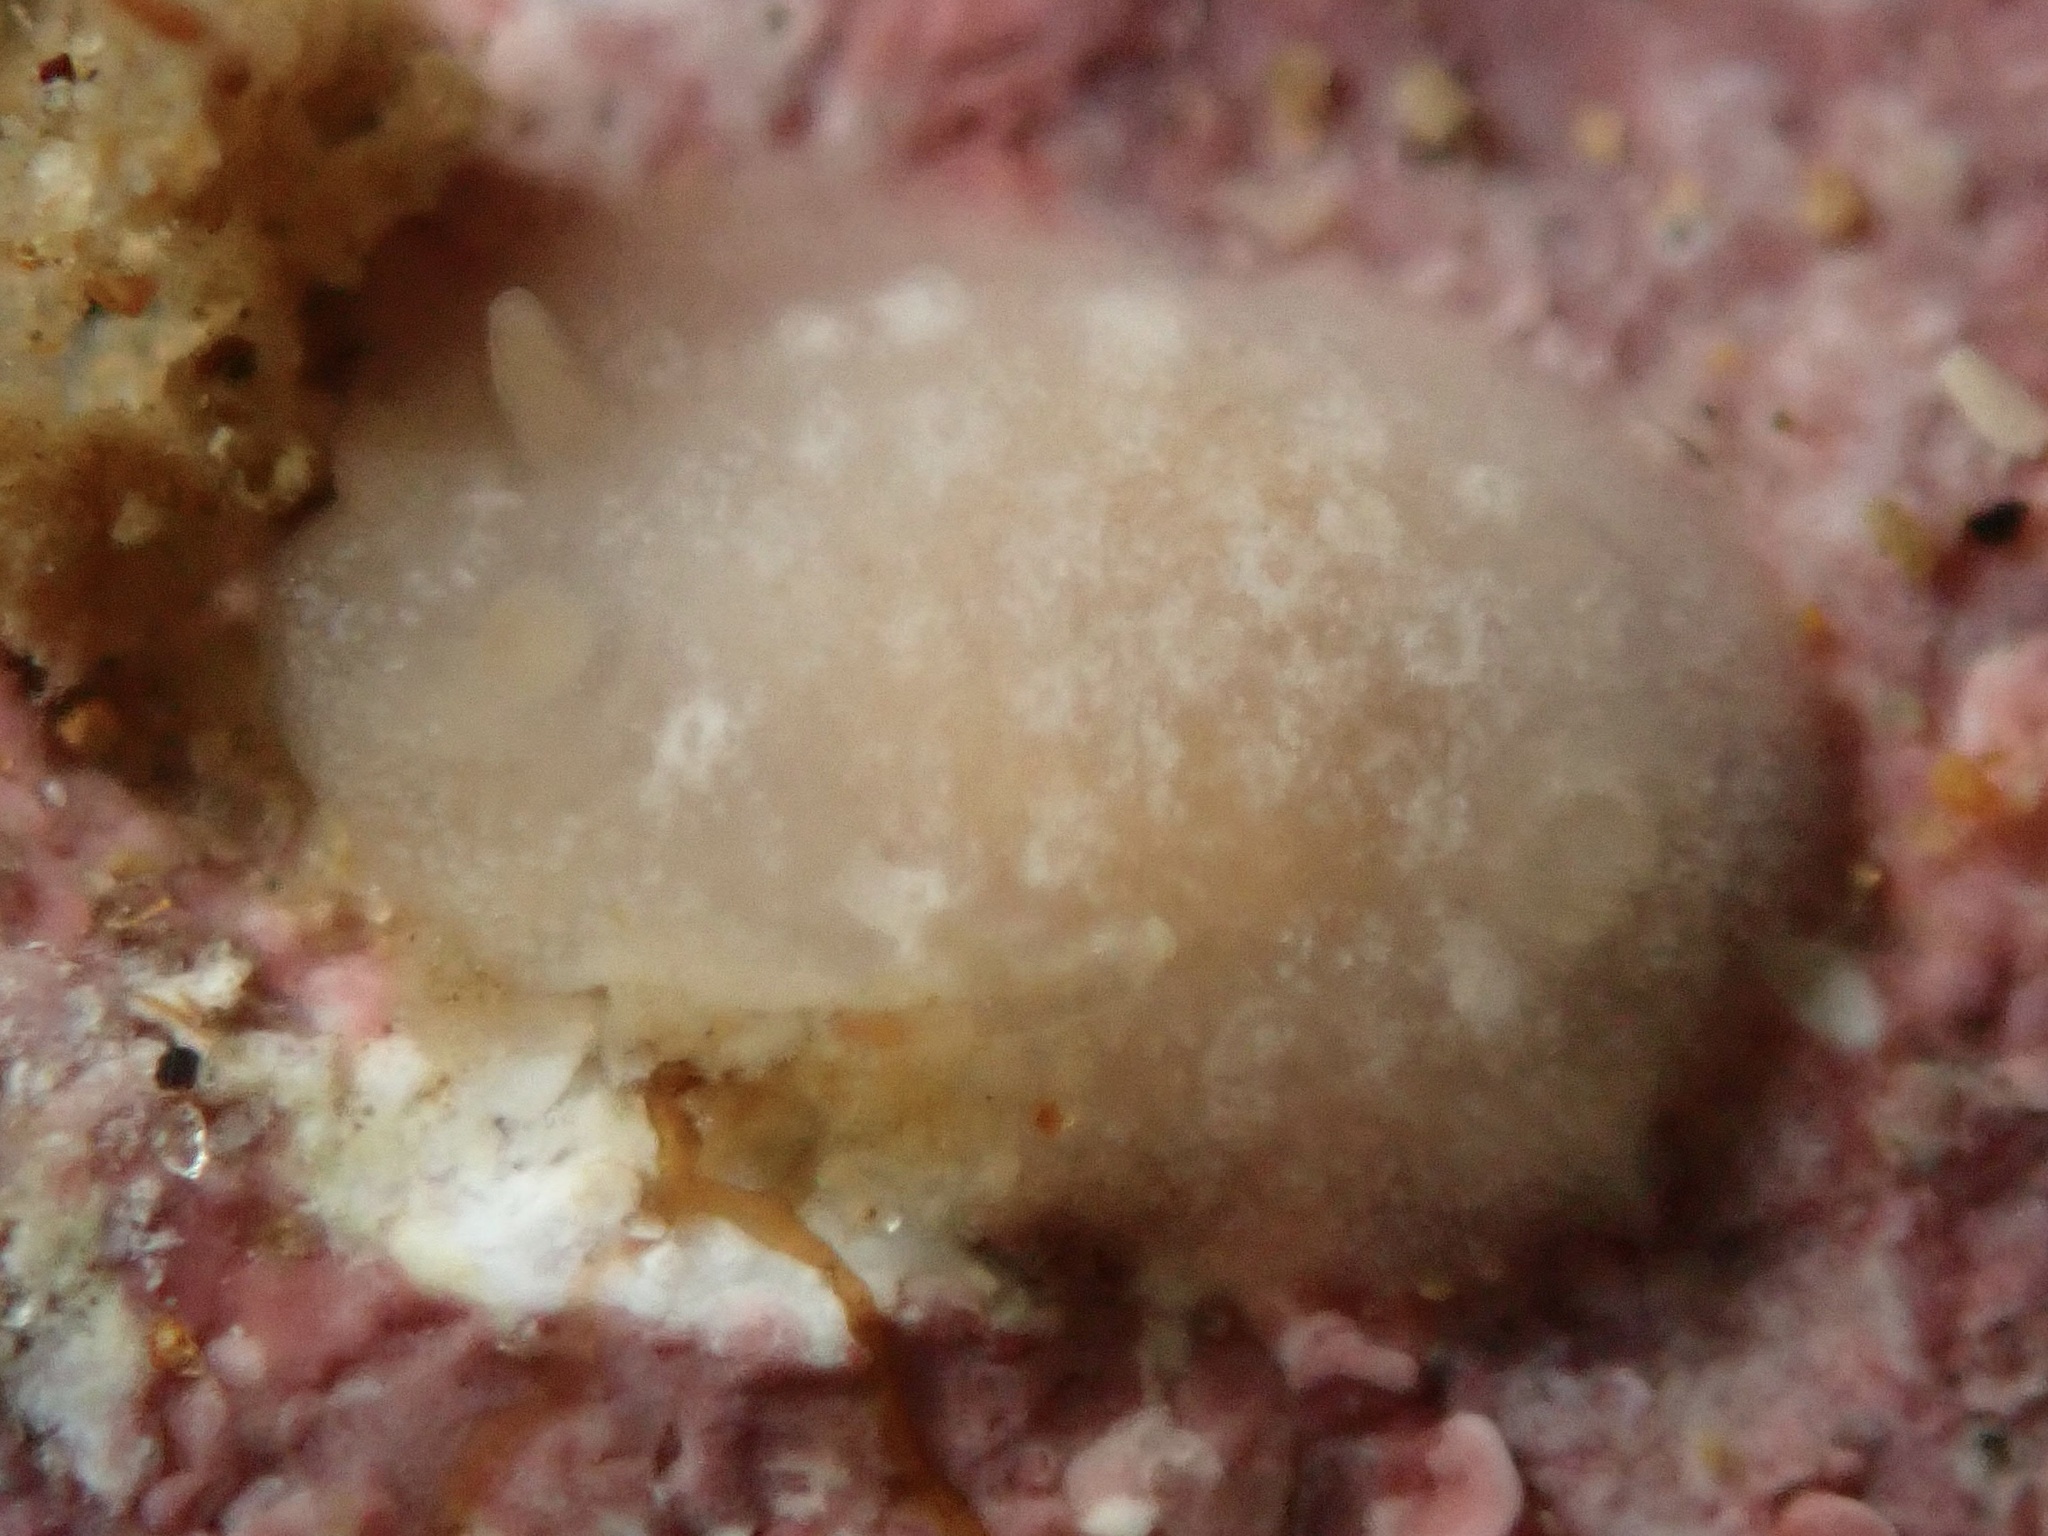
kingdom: Animalia
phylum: Mollusca
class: Gastropoda
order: Nudibranchia
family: Dendrodorididae
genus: Doriopsilla
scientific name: Doriopsilla rowena
